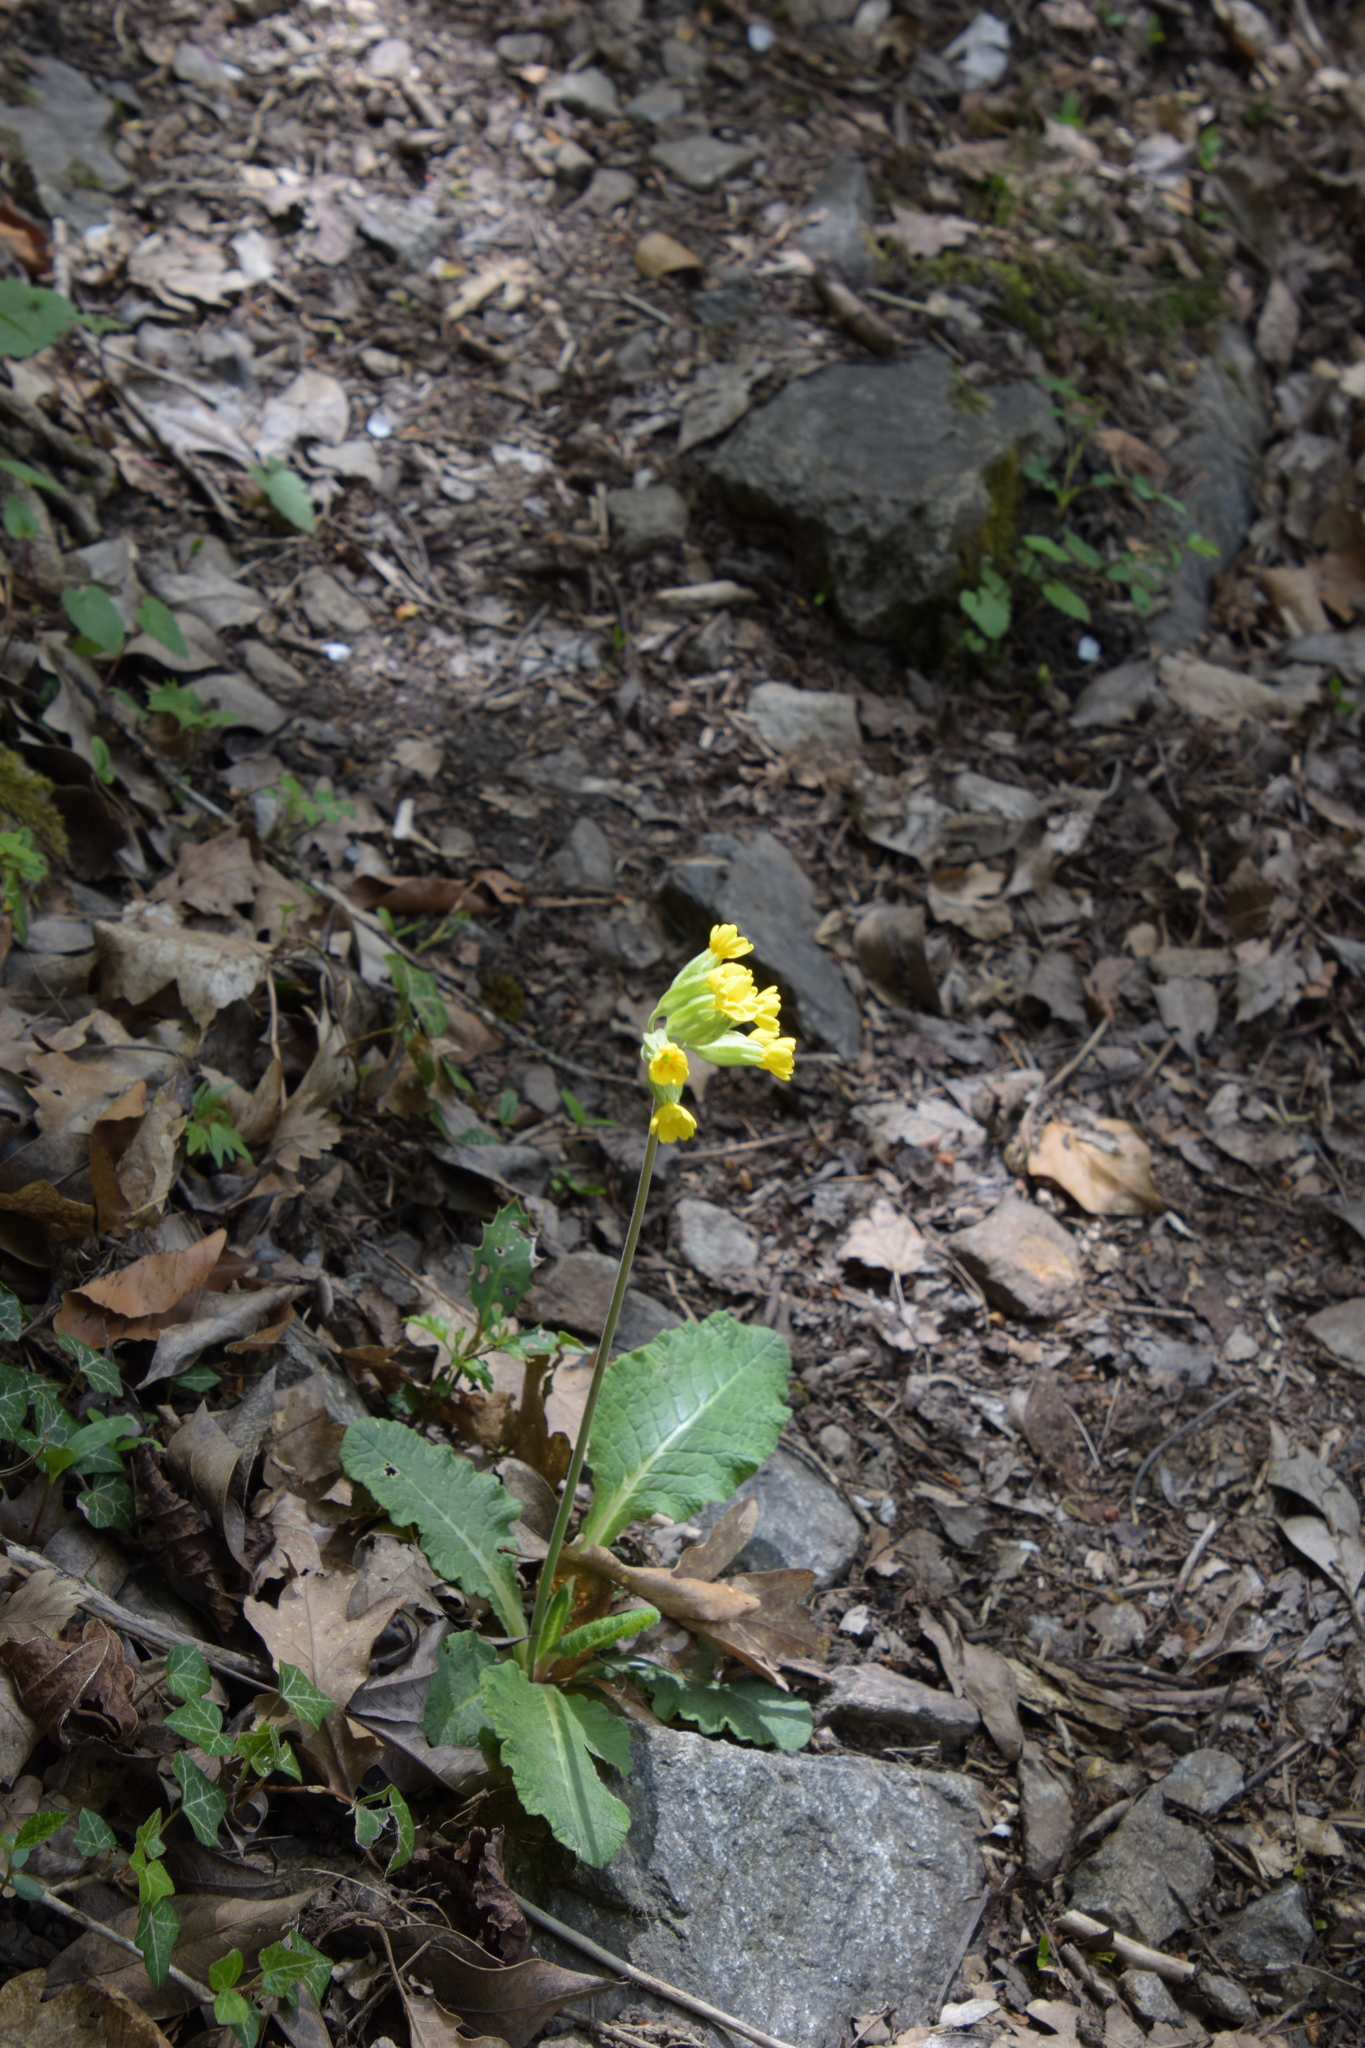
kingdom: Plantae
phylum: Tracheophyta
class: Magnoliopsida
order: Ericales
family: Primulaceae
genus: Primula
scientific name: Primula veris
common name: Cowslip
